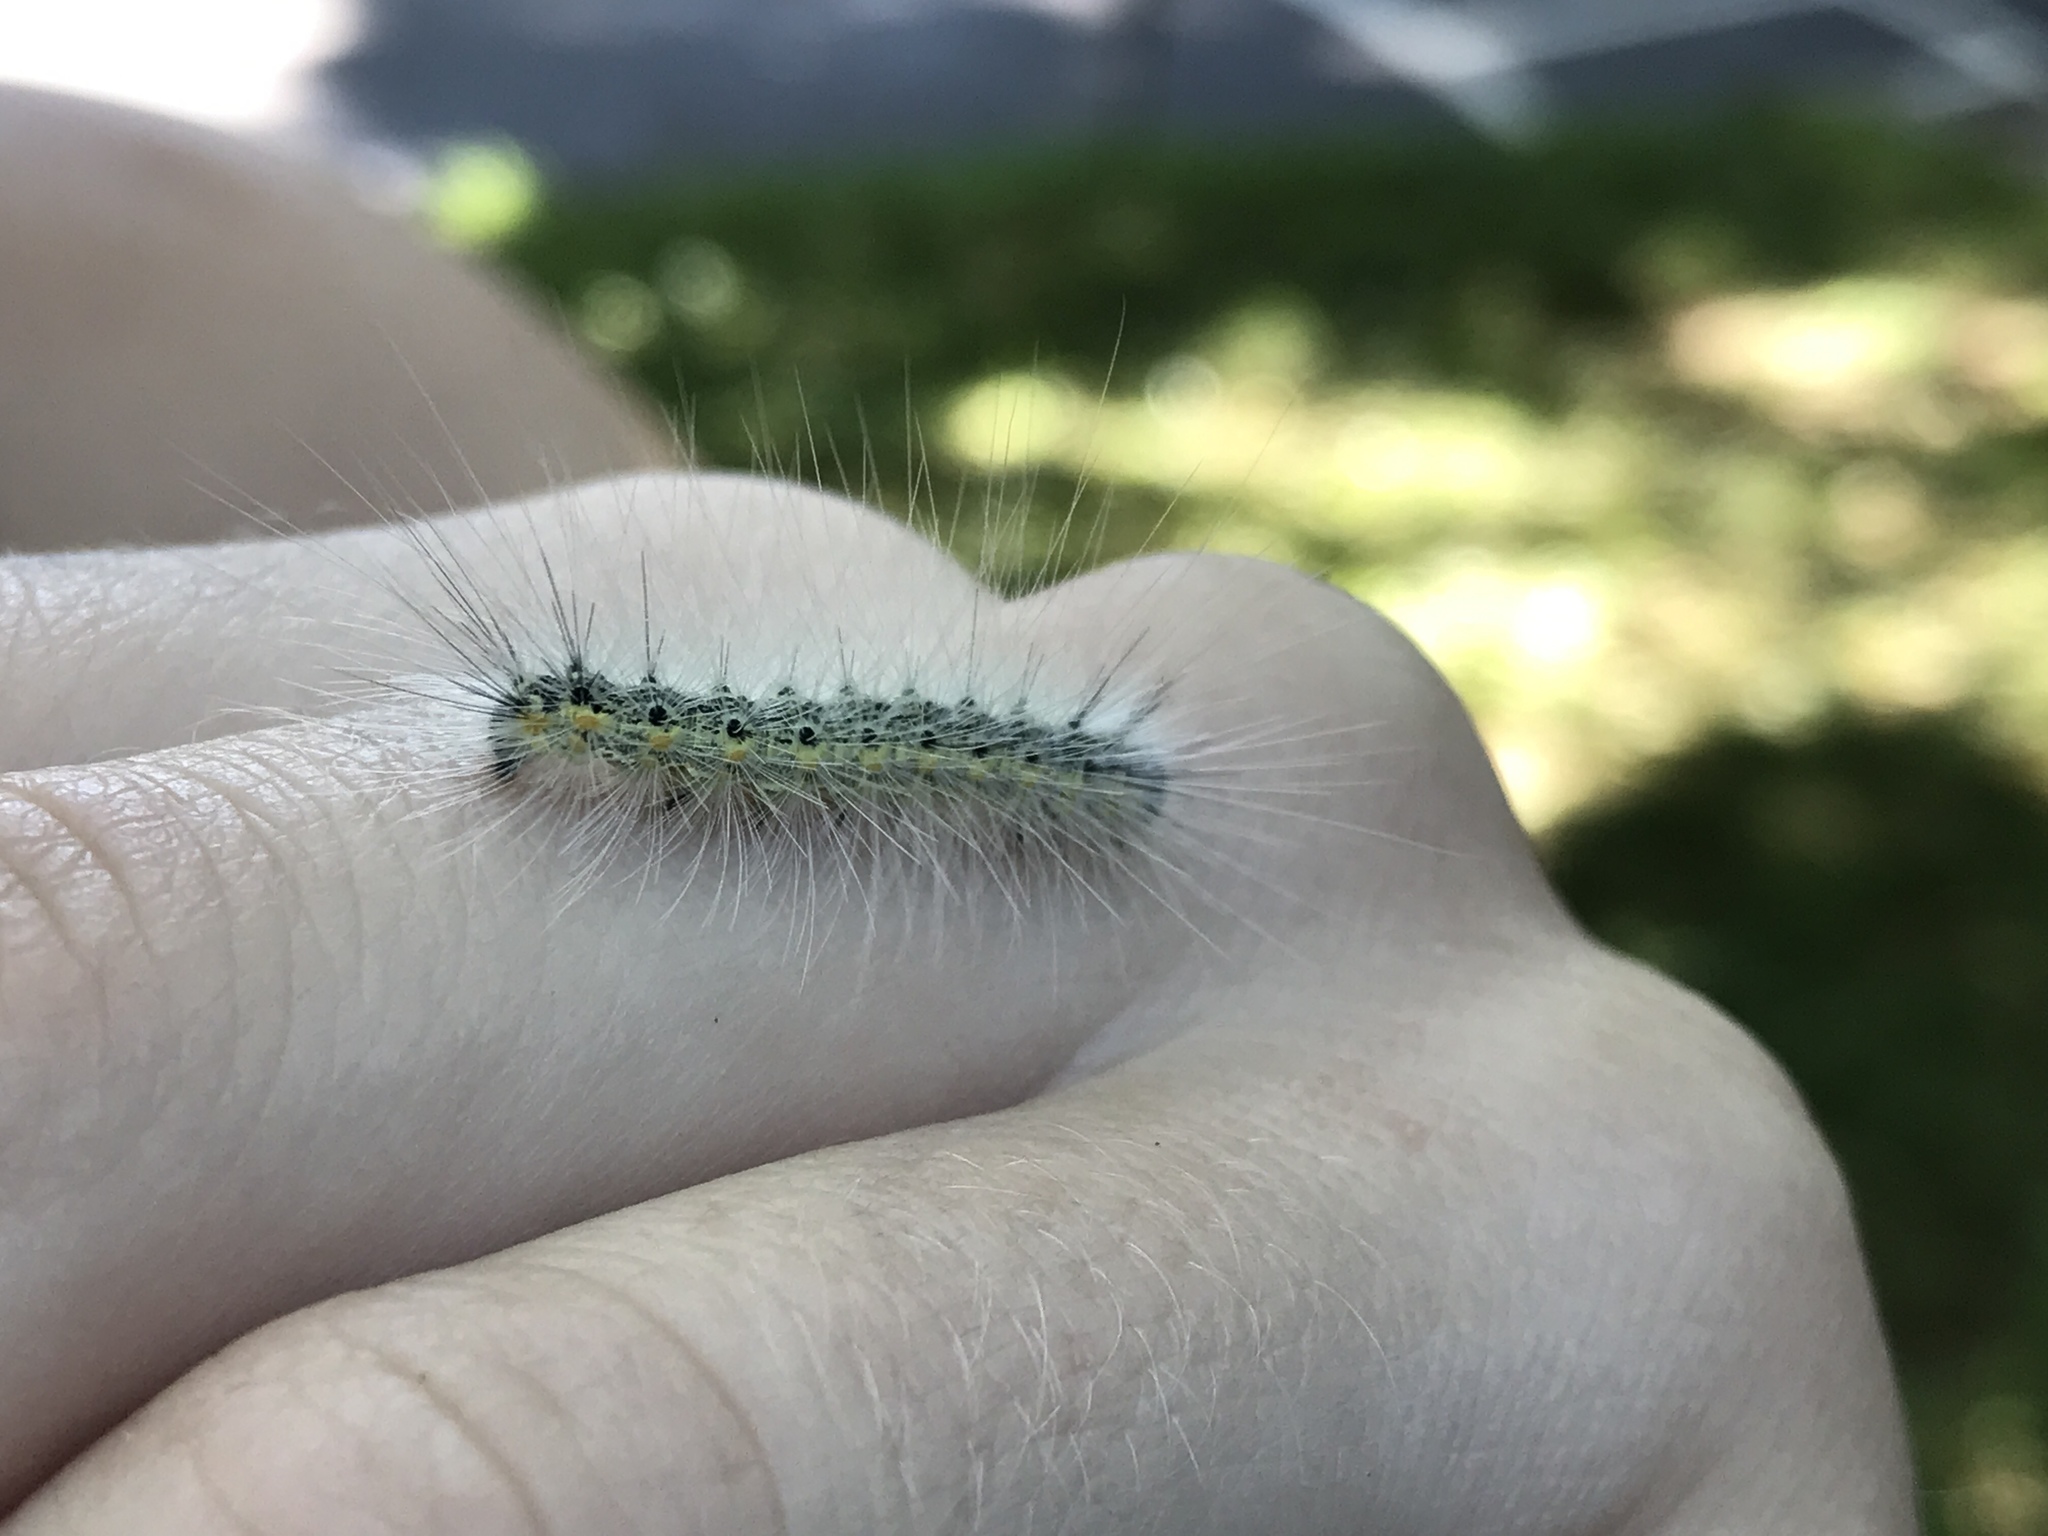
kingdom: Animalia
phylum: Arthropoda
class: Insecta
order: Lepidoptera
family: Erebidae
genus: Hyphantria
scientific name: Hyphantria cunea
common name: American white moth
